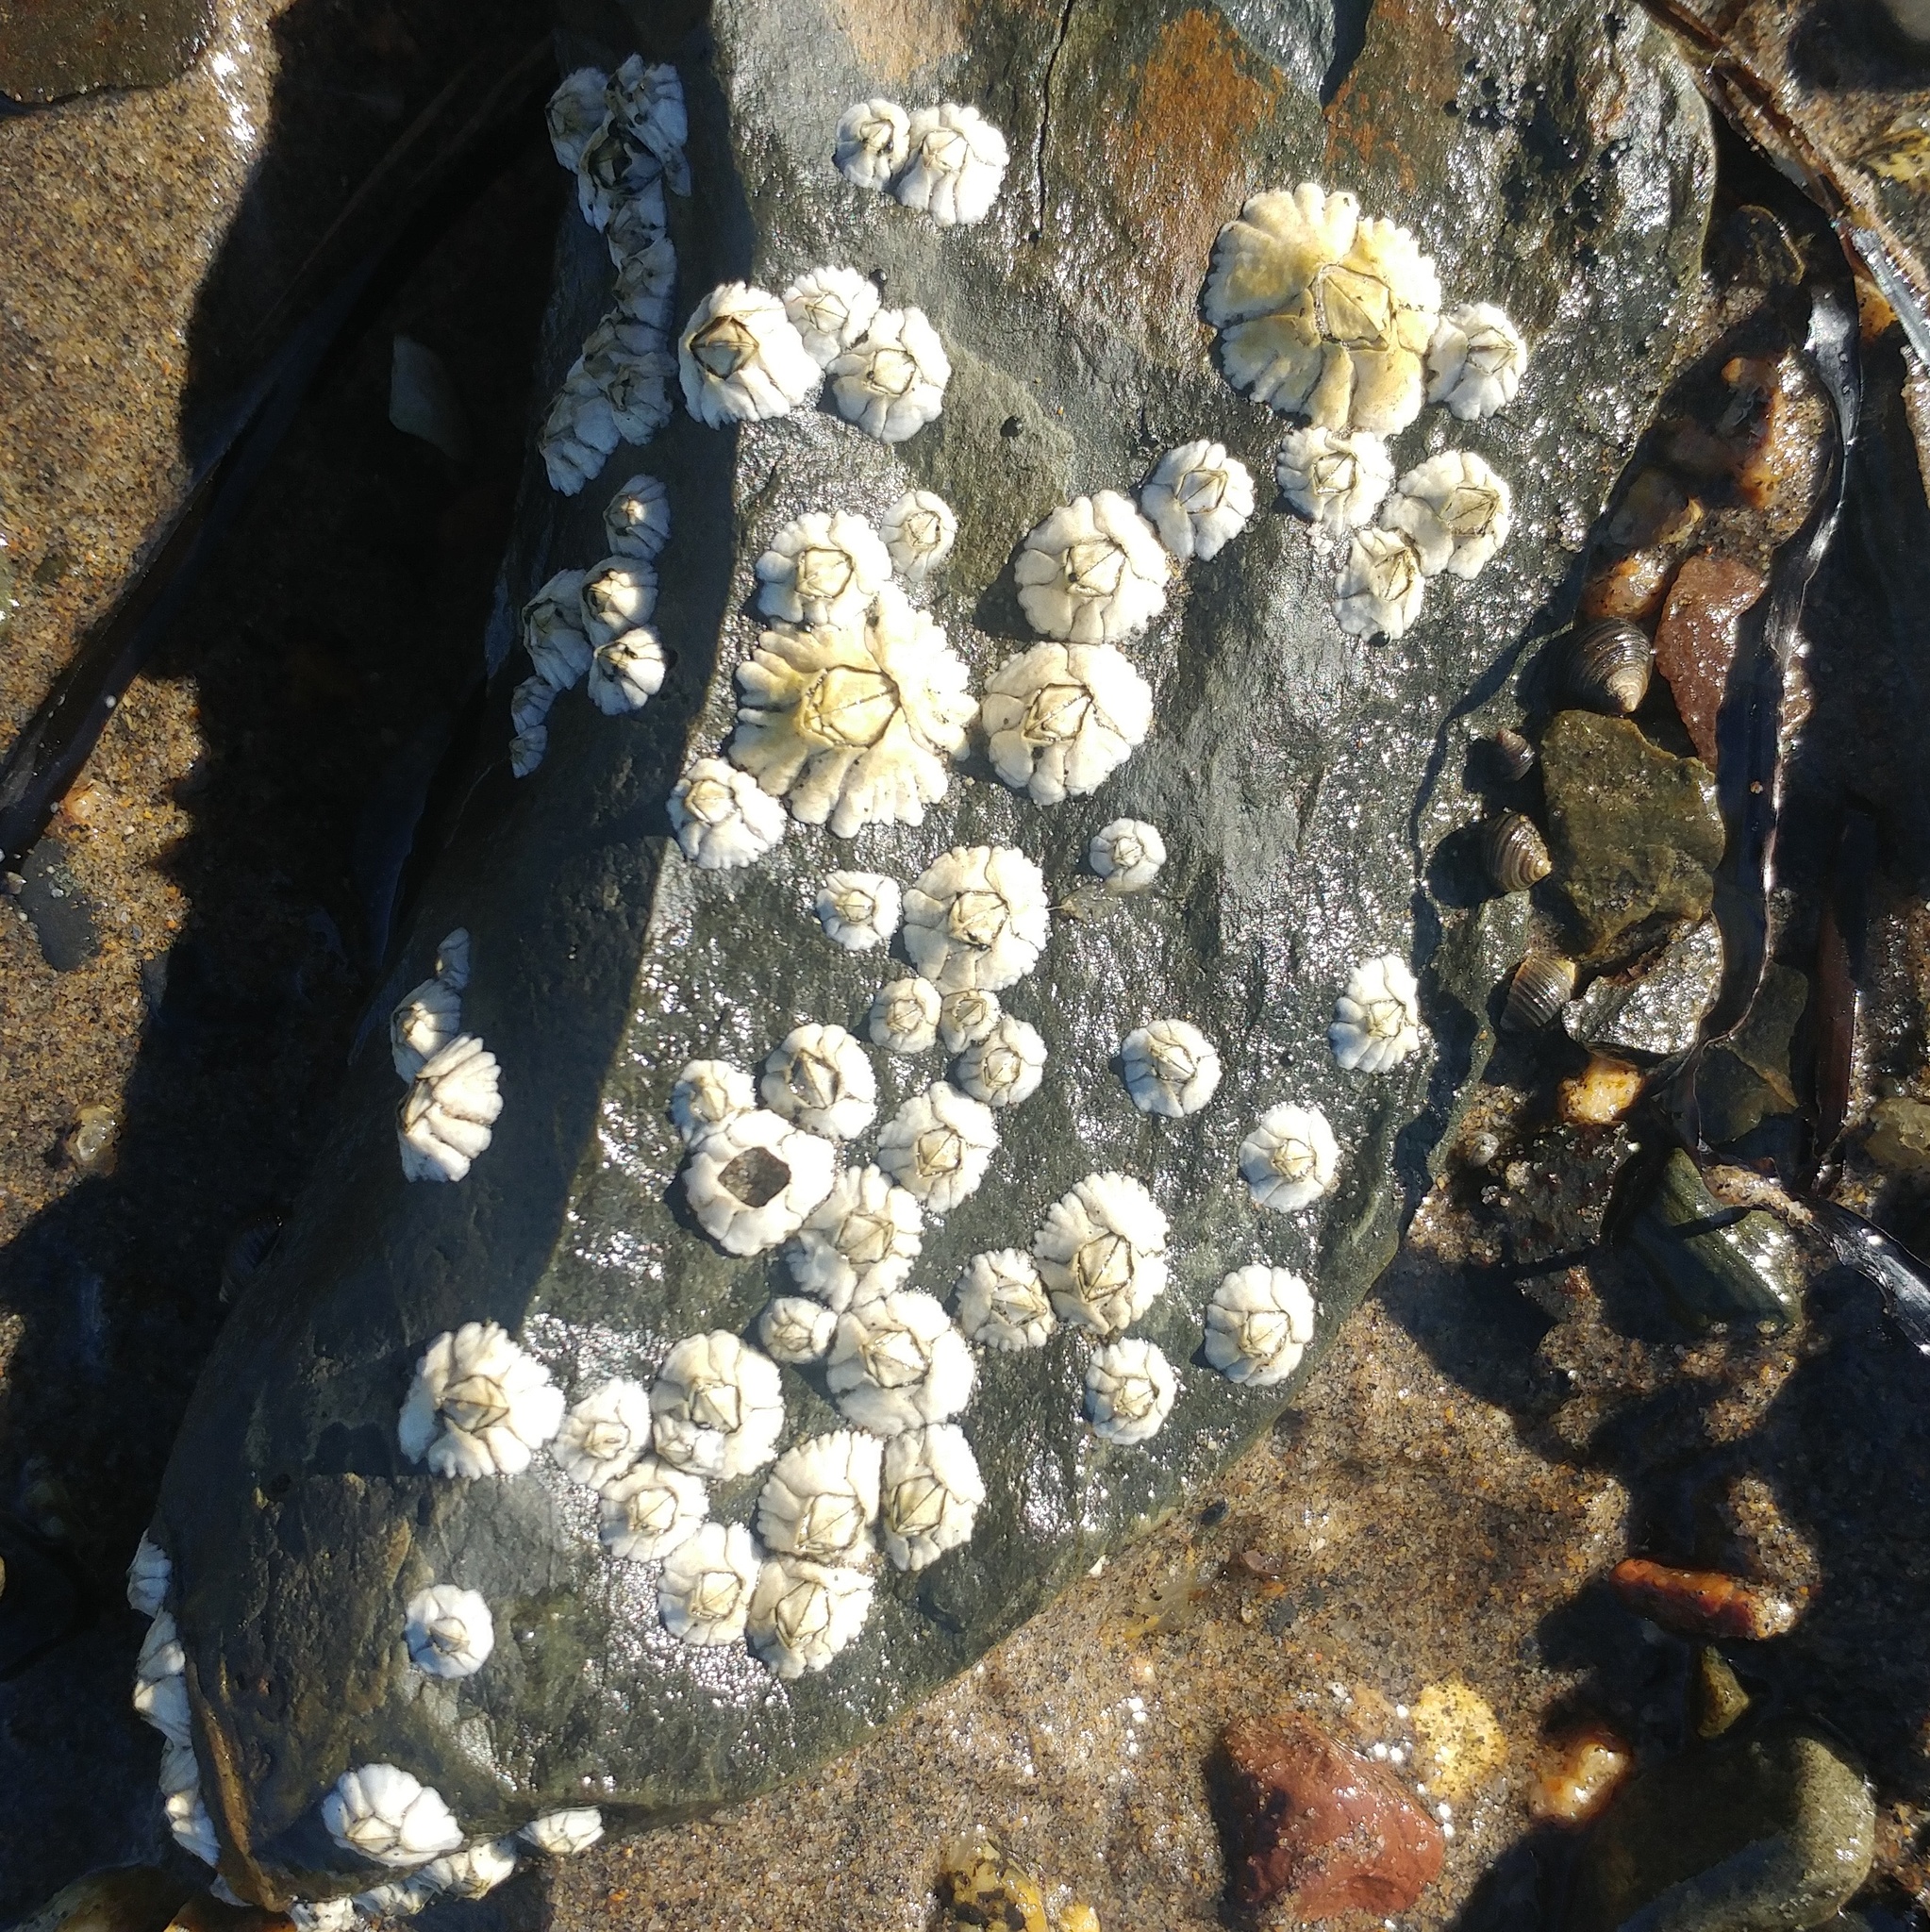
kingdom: Animalia
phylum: Arthropoda
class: Maxillopoda
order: Sessilia
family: Archaeobalanidae
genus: Semibalanus
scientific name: Semibalanus balanoides
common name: Acorn barnacle
